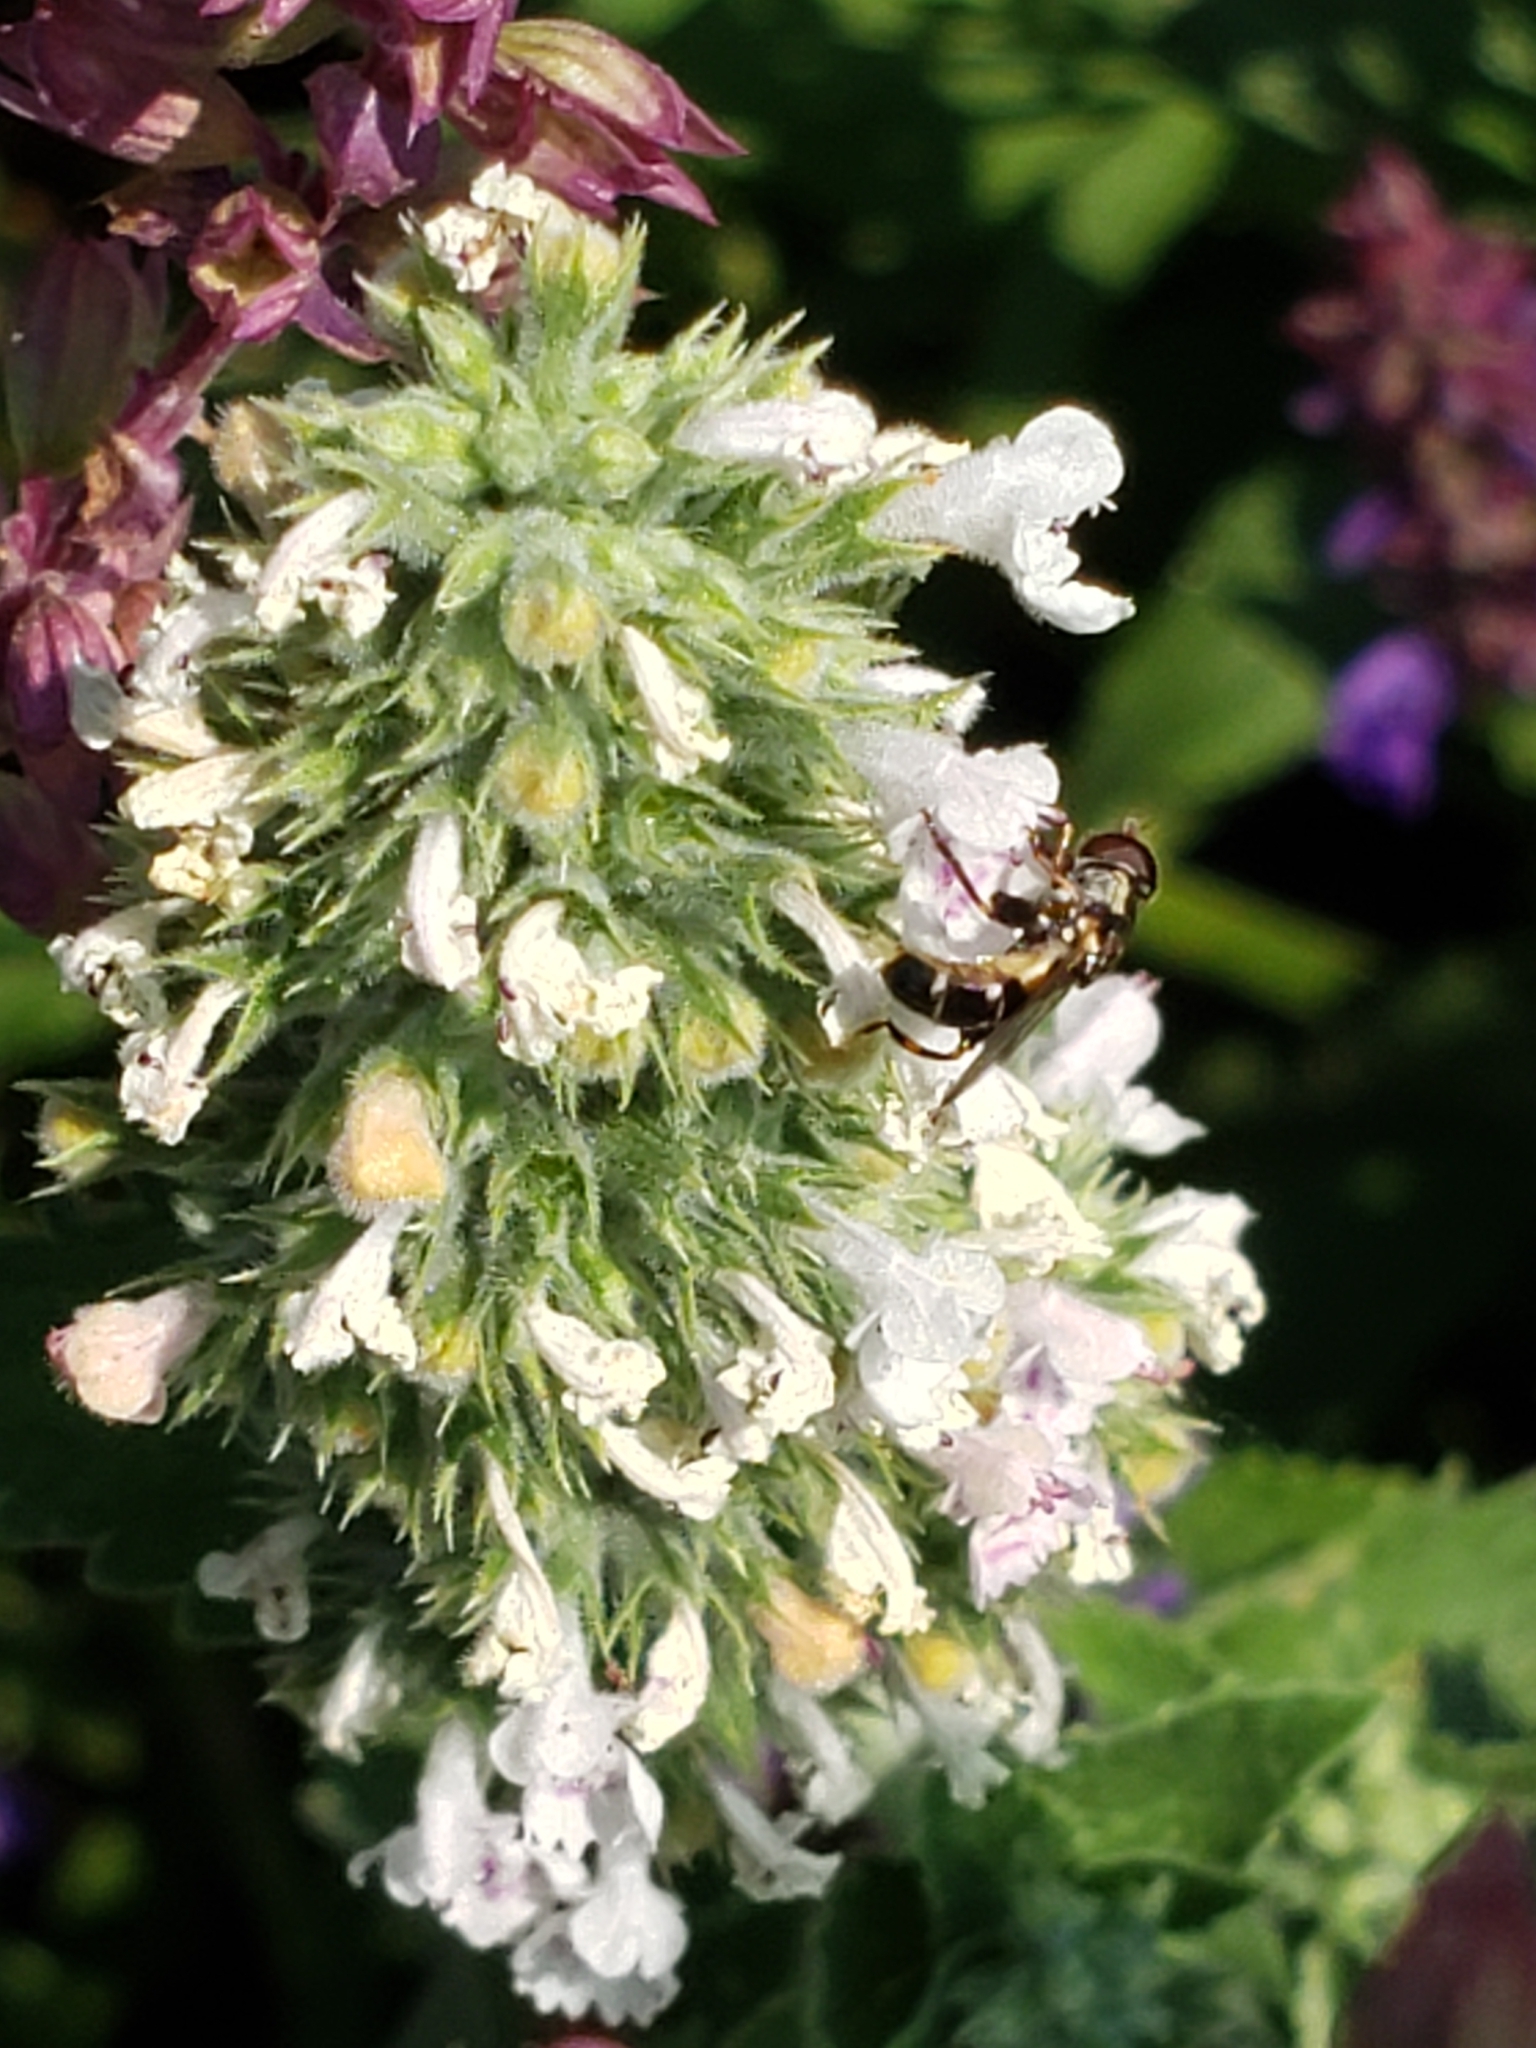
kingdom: Animalia
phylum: Arthropoda
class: Insecta
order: Diptera
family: Syrphidae
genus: Syritta
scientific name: Syritta pipiens
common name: Hover fly
